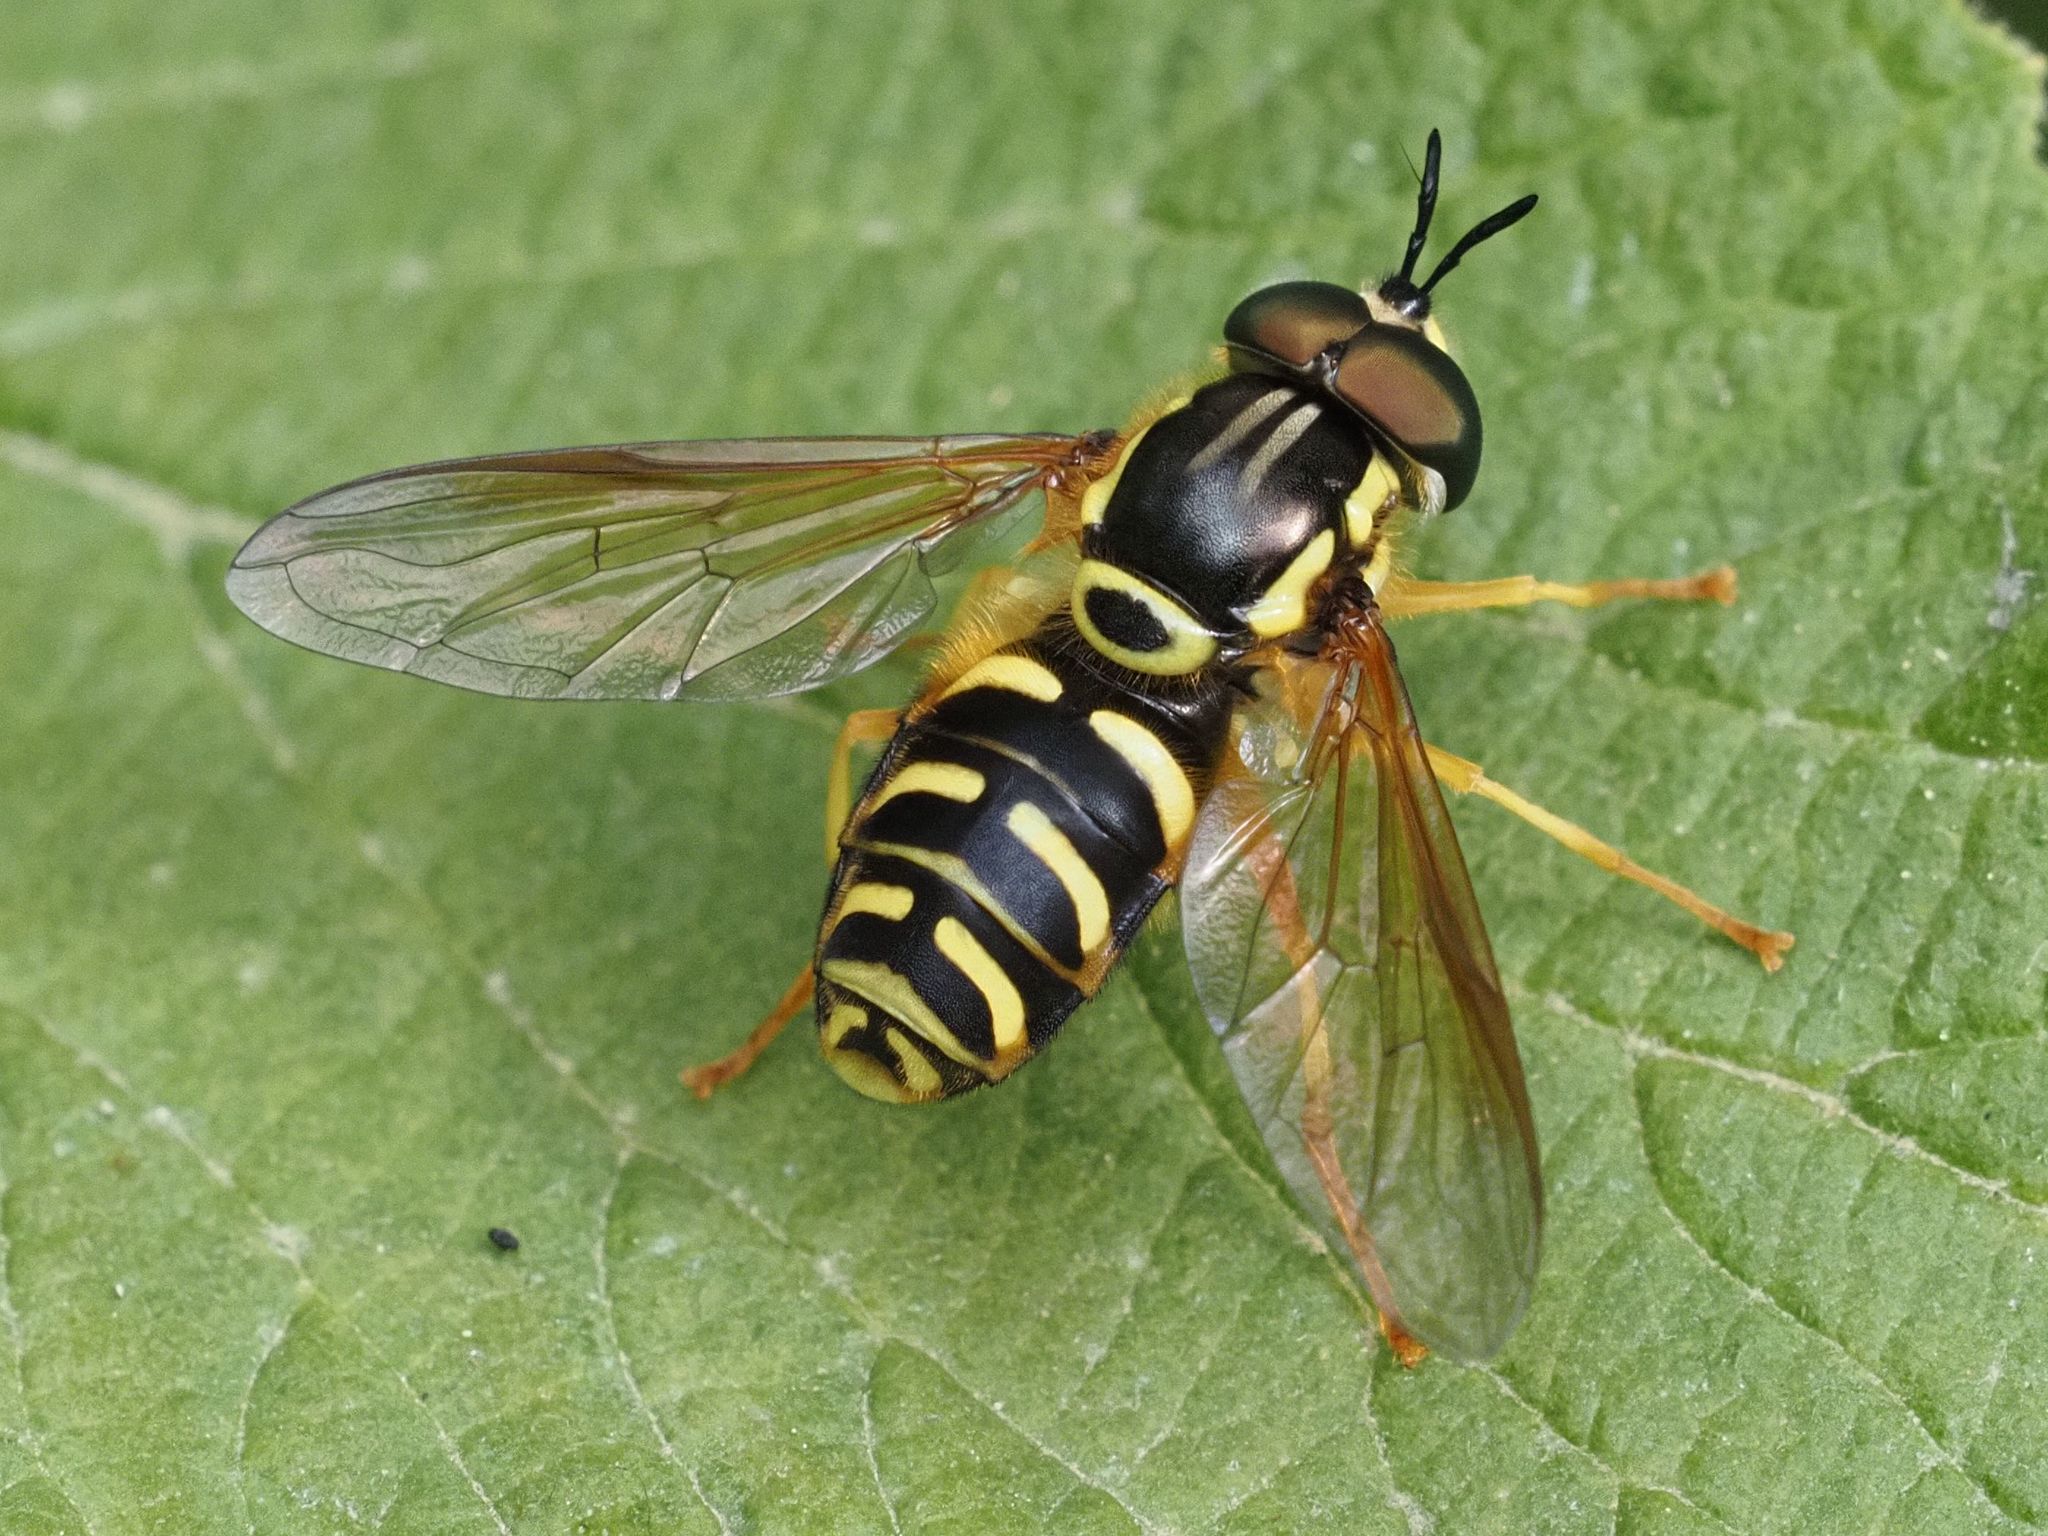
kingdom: Animalia
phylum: Arthropoda
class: Insecta
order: Diptera
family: Syrphidae
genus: Chrysotoxum
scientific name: Chrysotoxum elegans
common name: Zipperback
